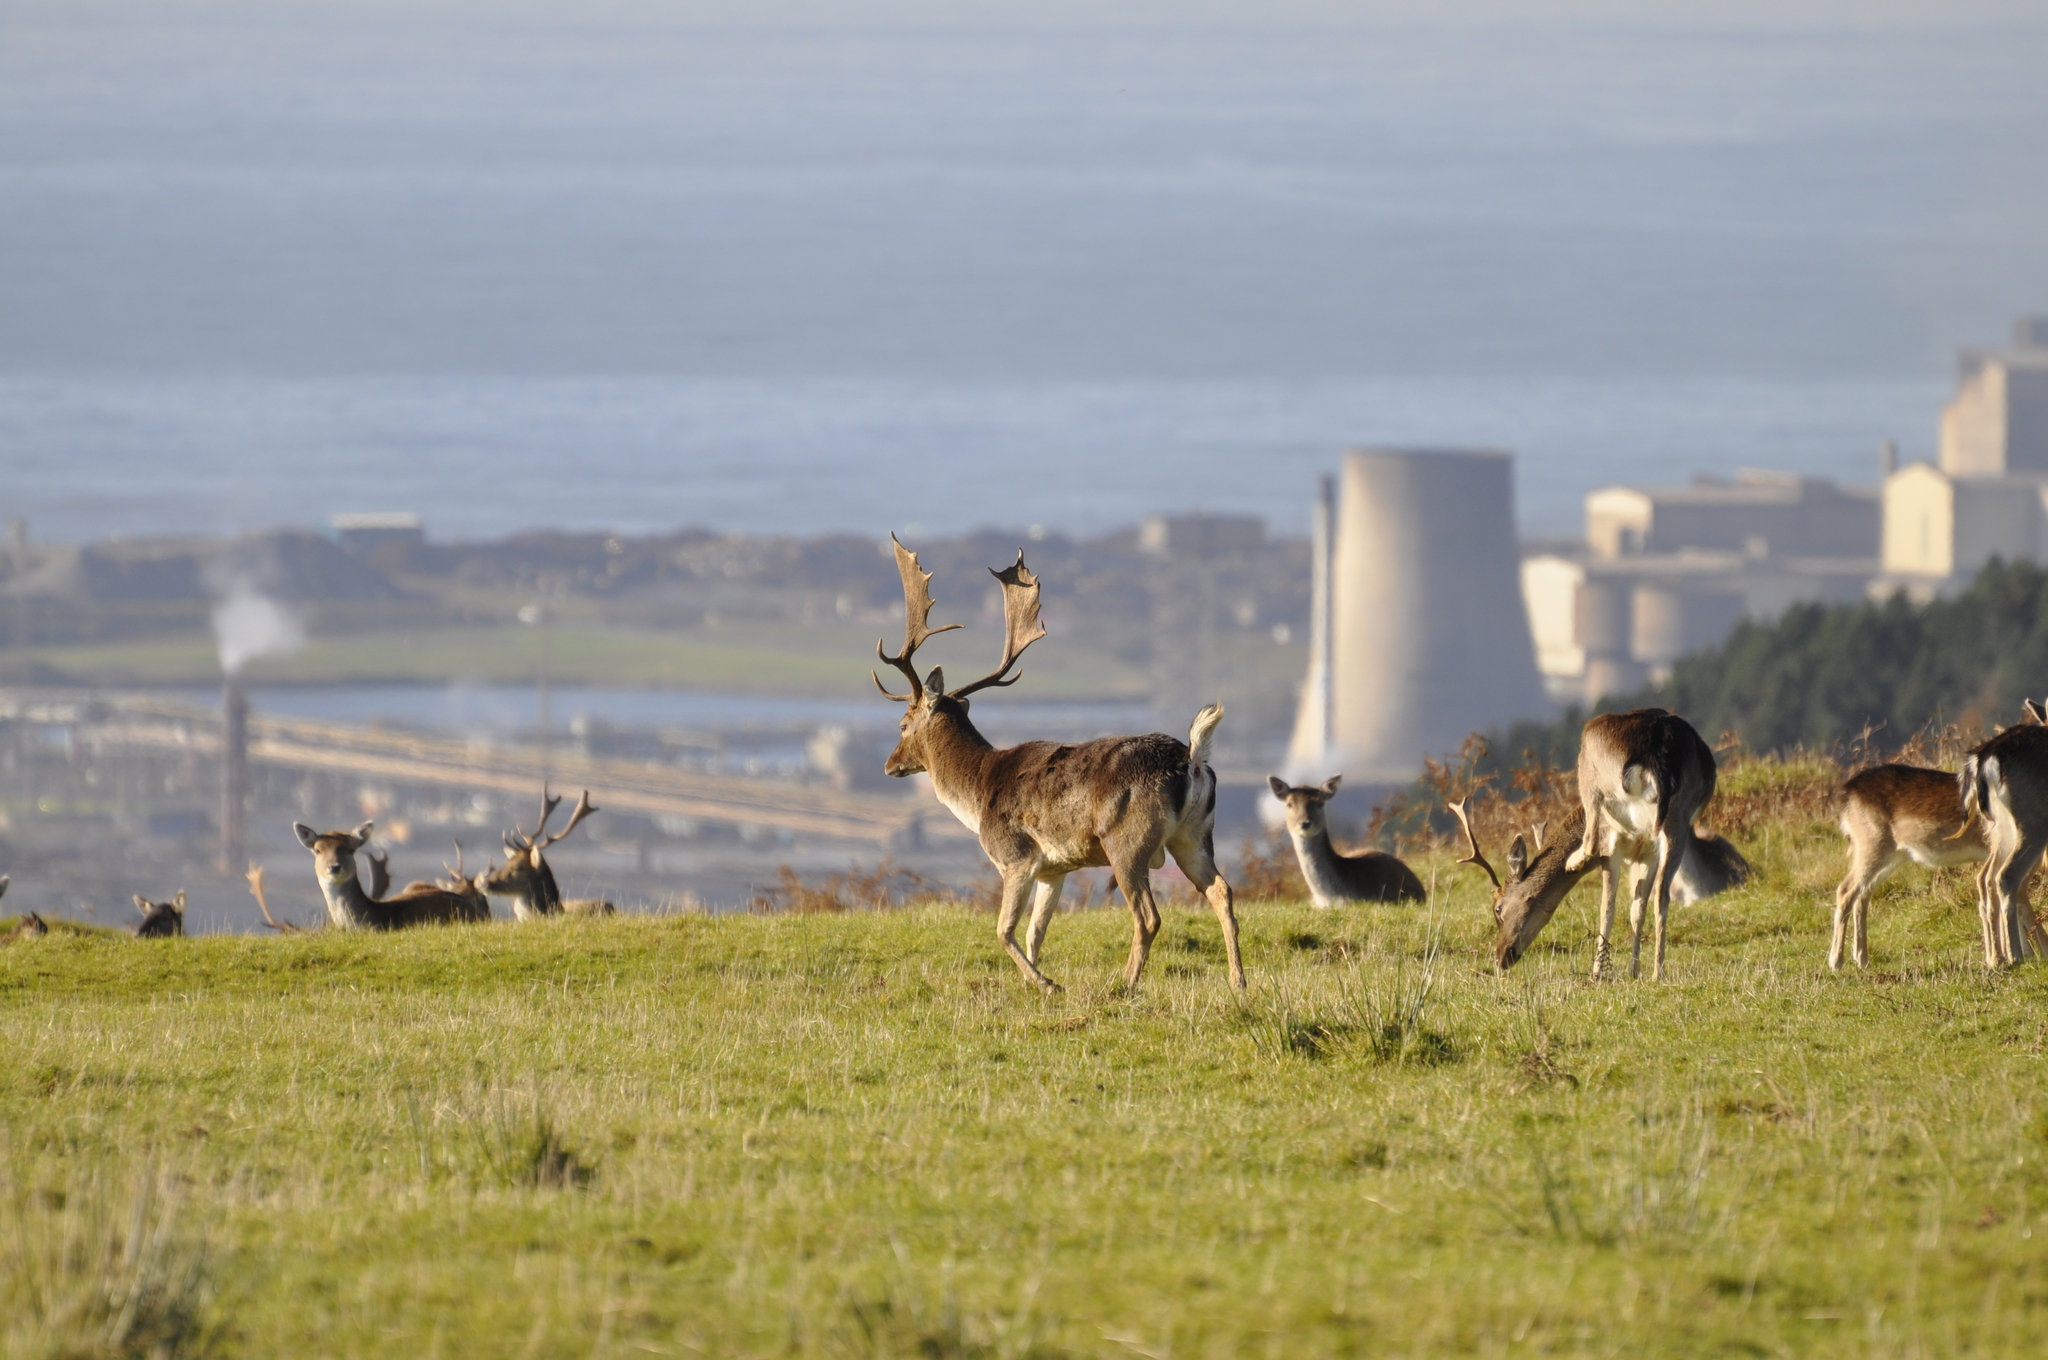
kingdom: Animalia
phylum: Chordata
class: Mammalia
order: Artiodactyla
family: Cervidae
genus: Dama
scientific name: Dama dama
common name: Fallow deer
